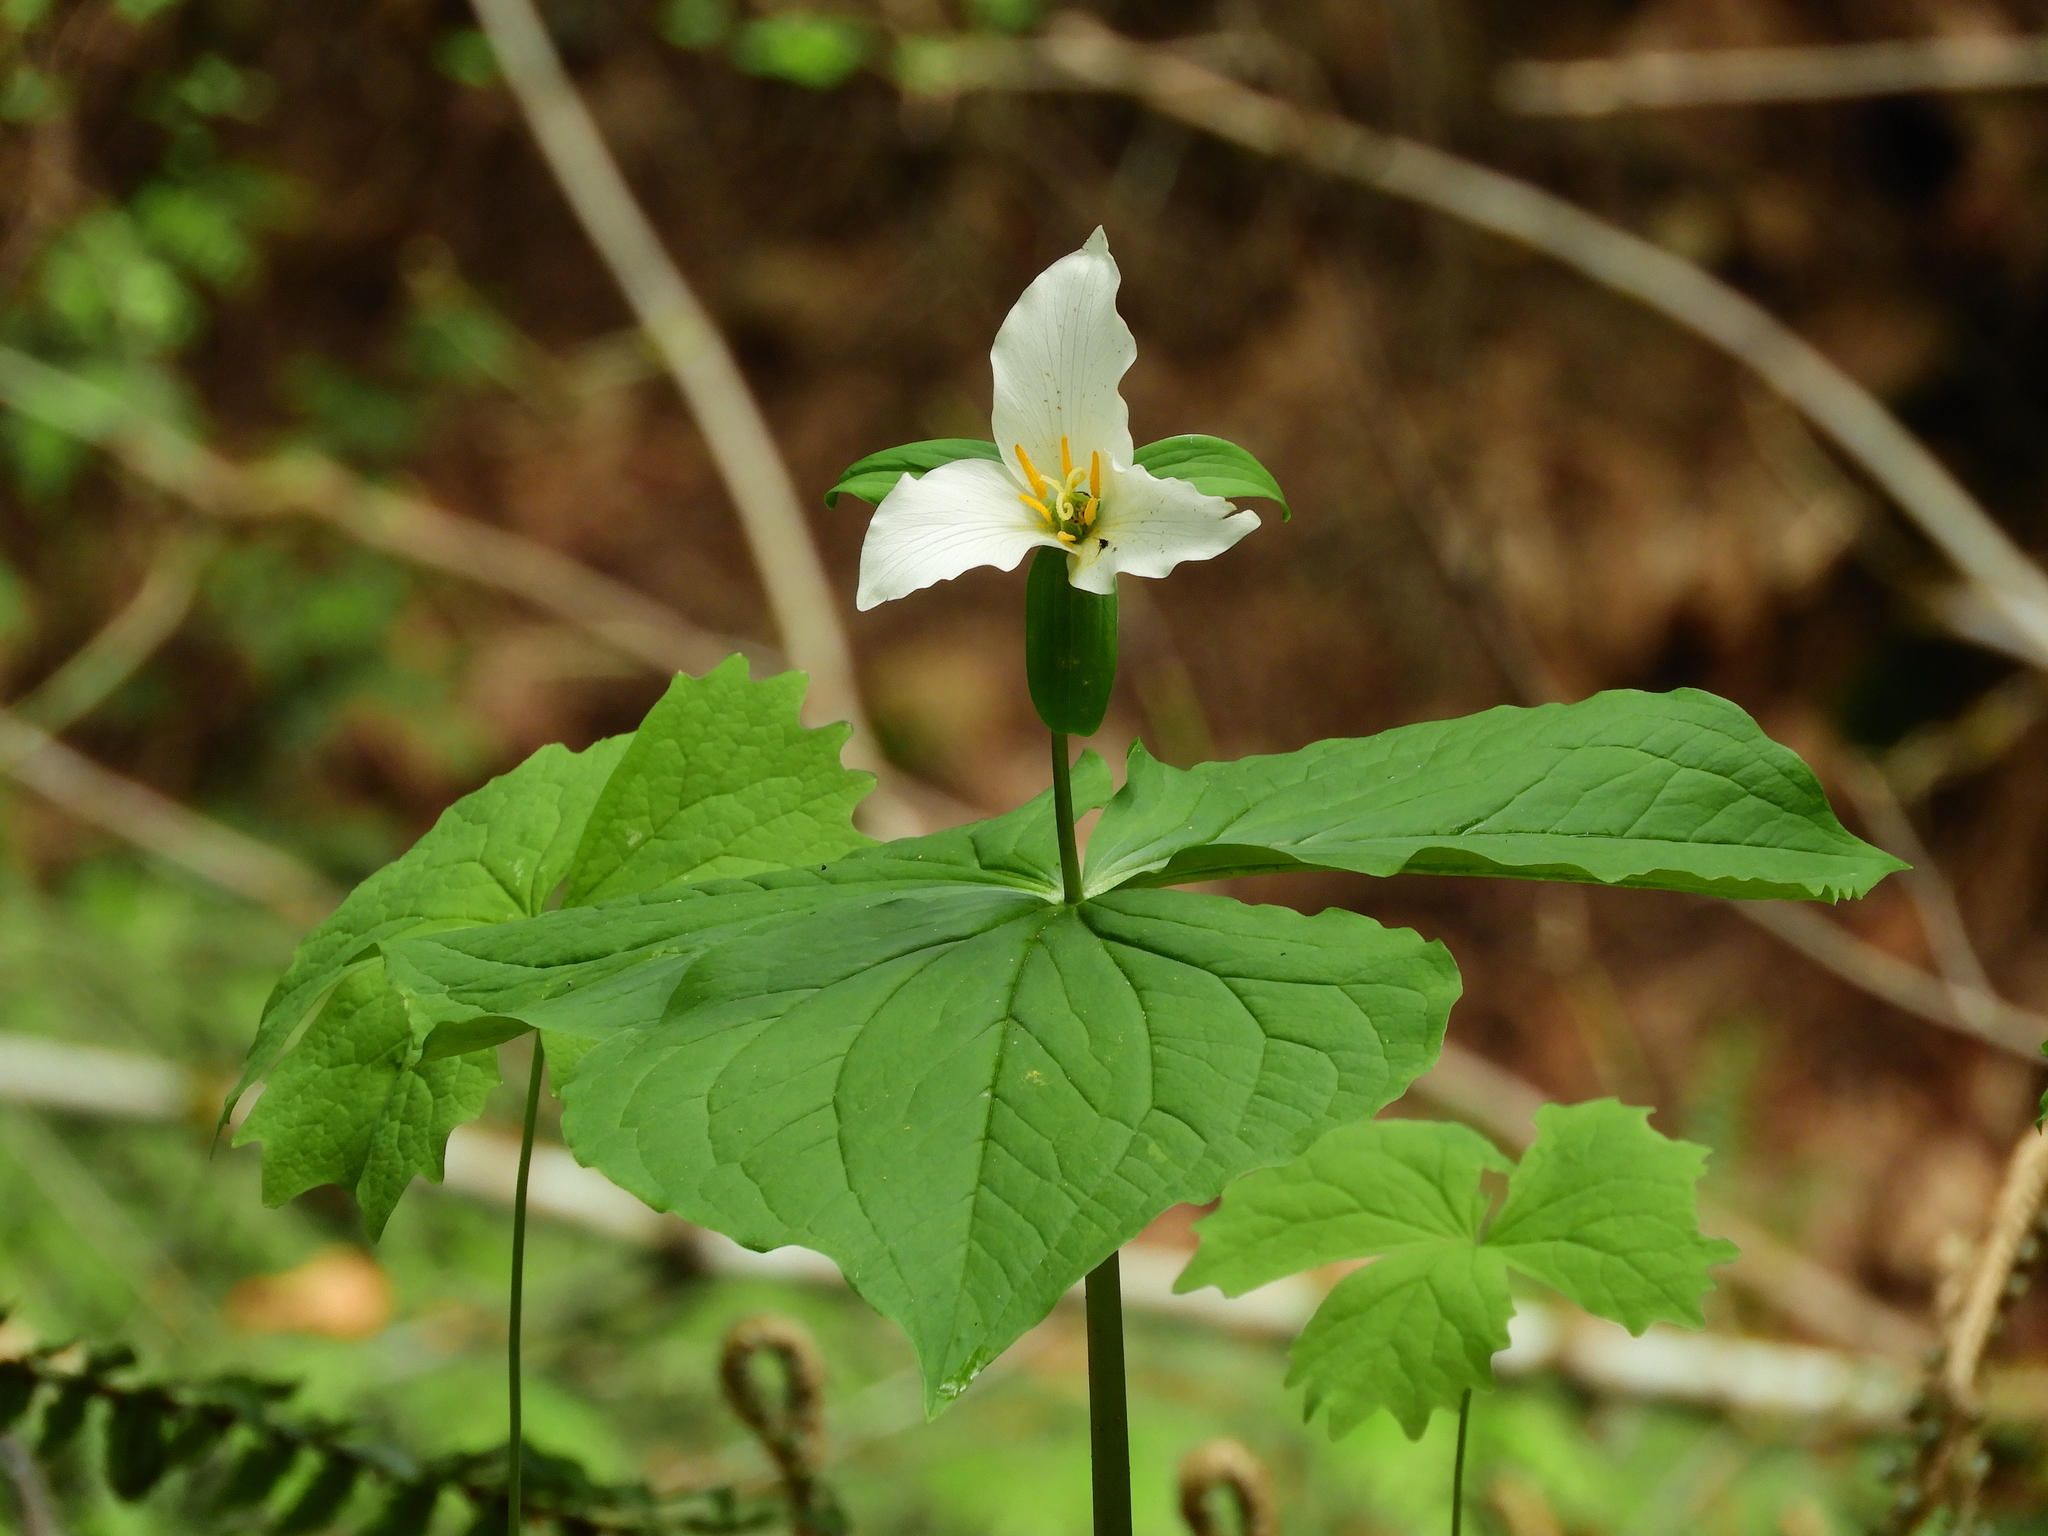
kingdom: Plantae
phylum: Tracheophyta
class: Liliopsida
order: Liliales
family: Melanthiaceae
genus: Trillium
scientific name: Trillium ovatum
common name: Pacific trillium
